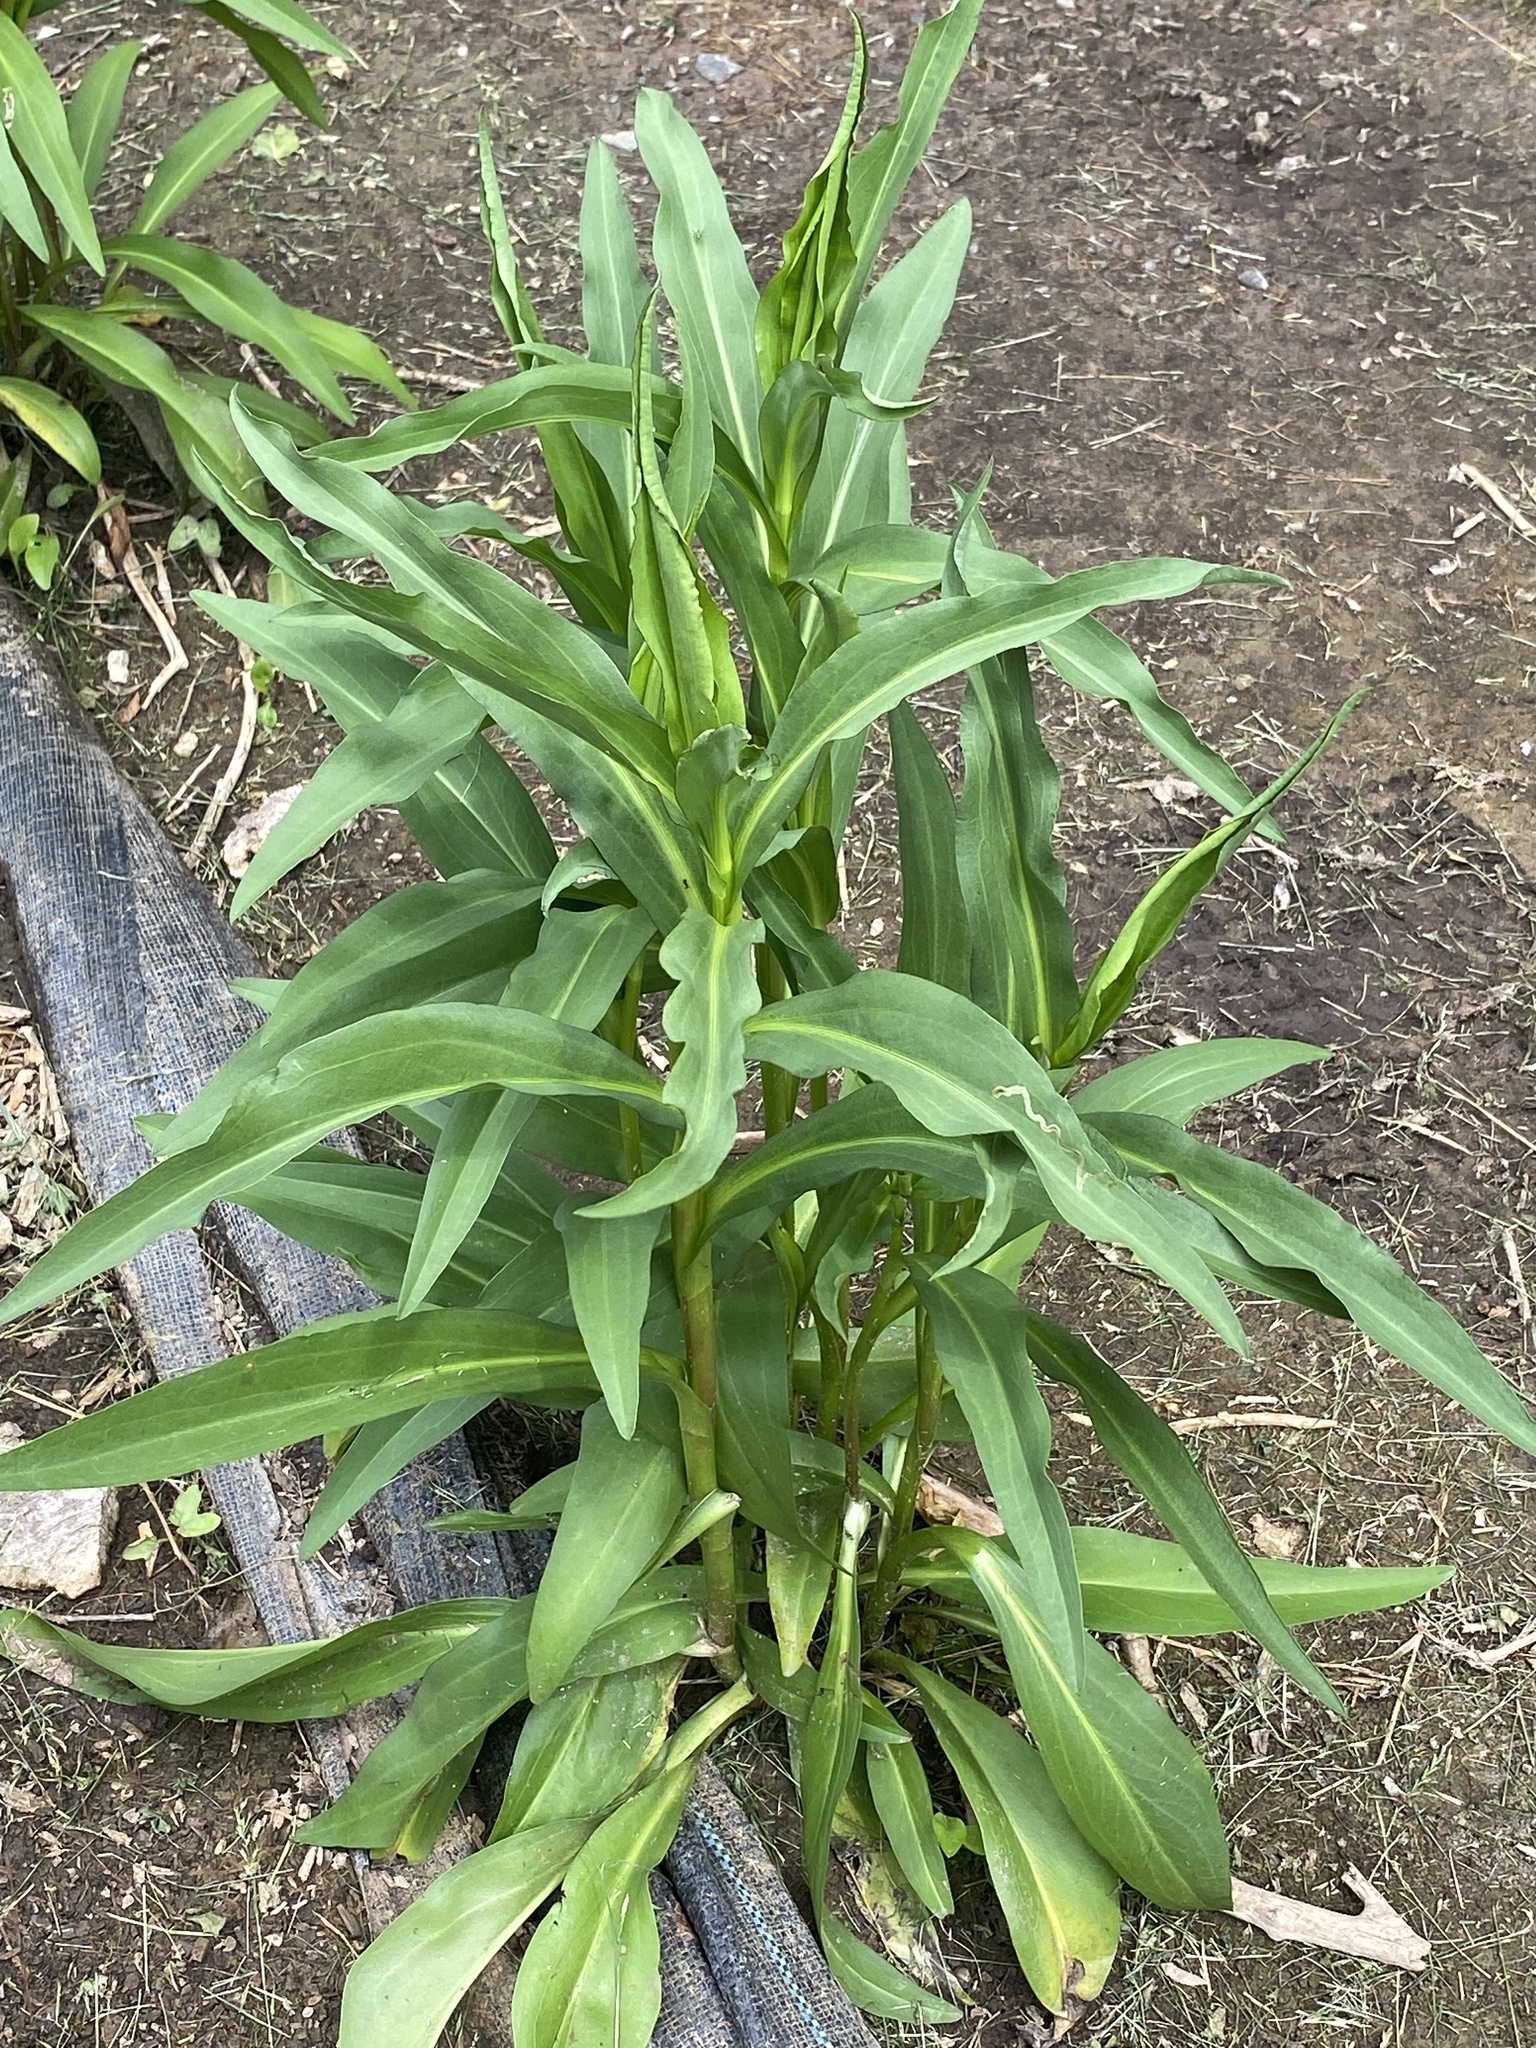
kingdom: Plantae
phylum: Tracheophyta
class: Magnoliopsida
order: Asterales
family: Asteraceae
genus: Solidago
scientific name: Solidago sempervirens
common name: Salt-marsh goldenrod
